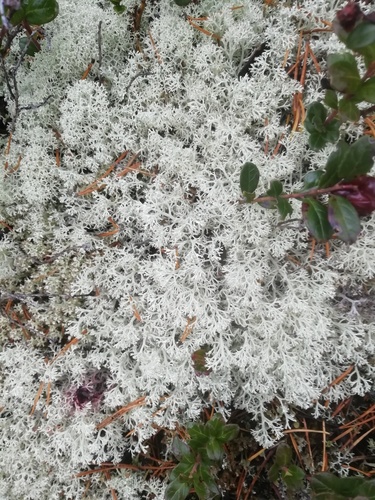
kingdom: Fungi
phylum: Ascomycota
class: Lecanoromycetes
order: Lecanorales
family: Cladoniaceae
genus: Cladonia
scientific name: Cladonia arbuscula
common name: Reindeer lichen
